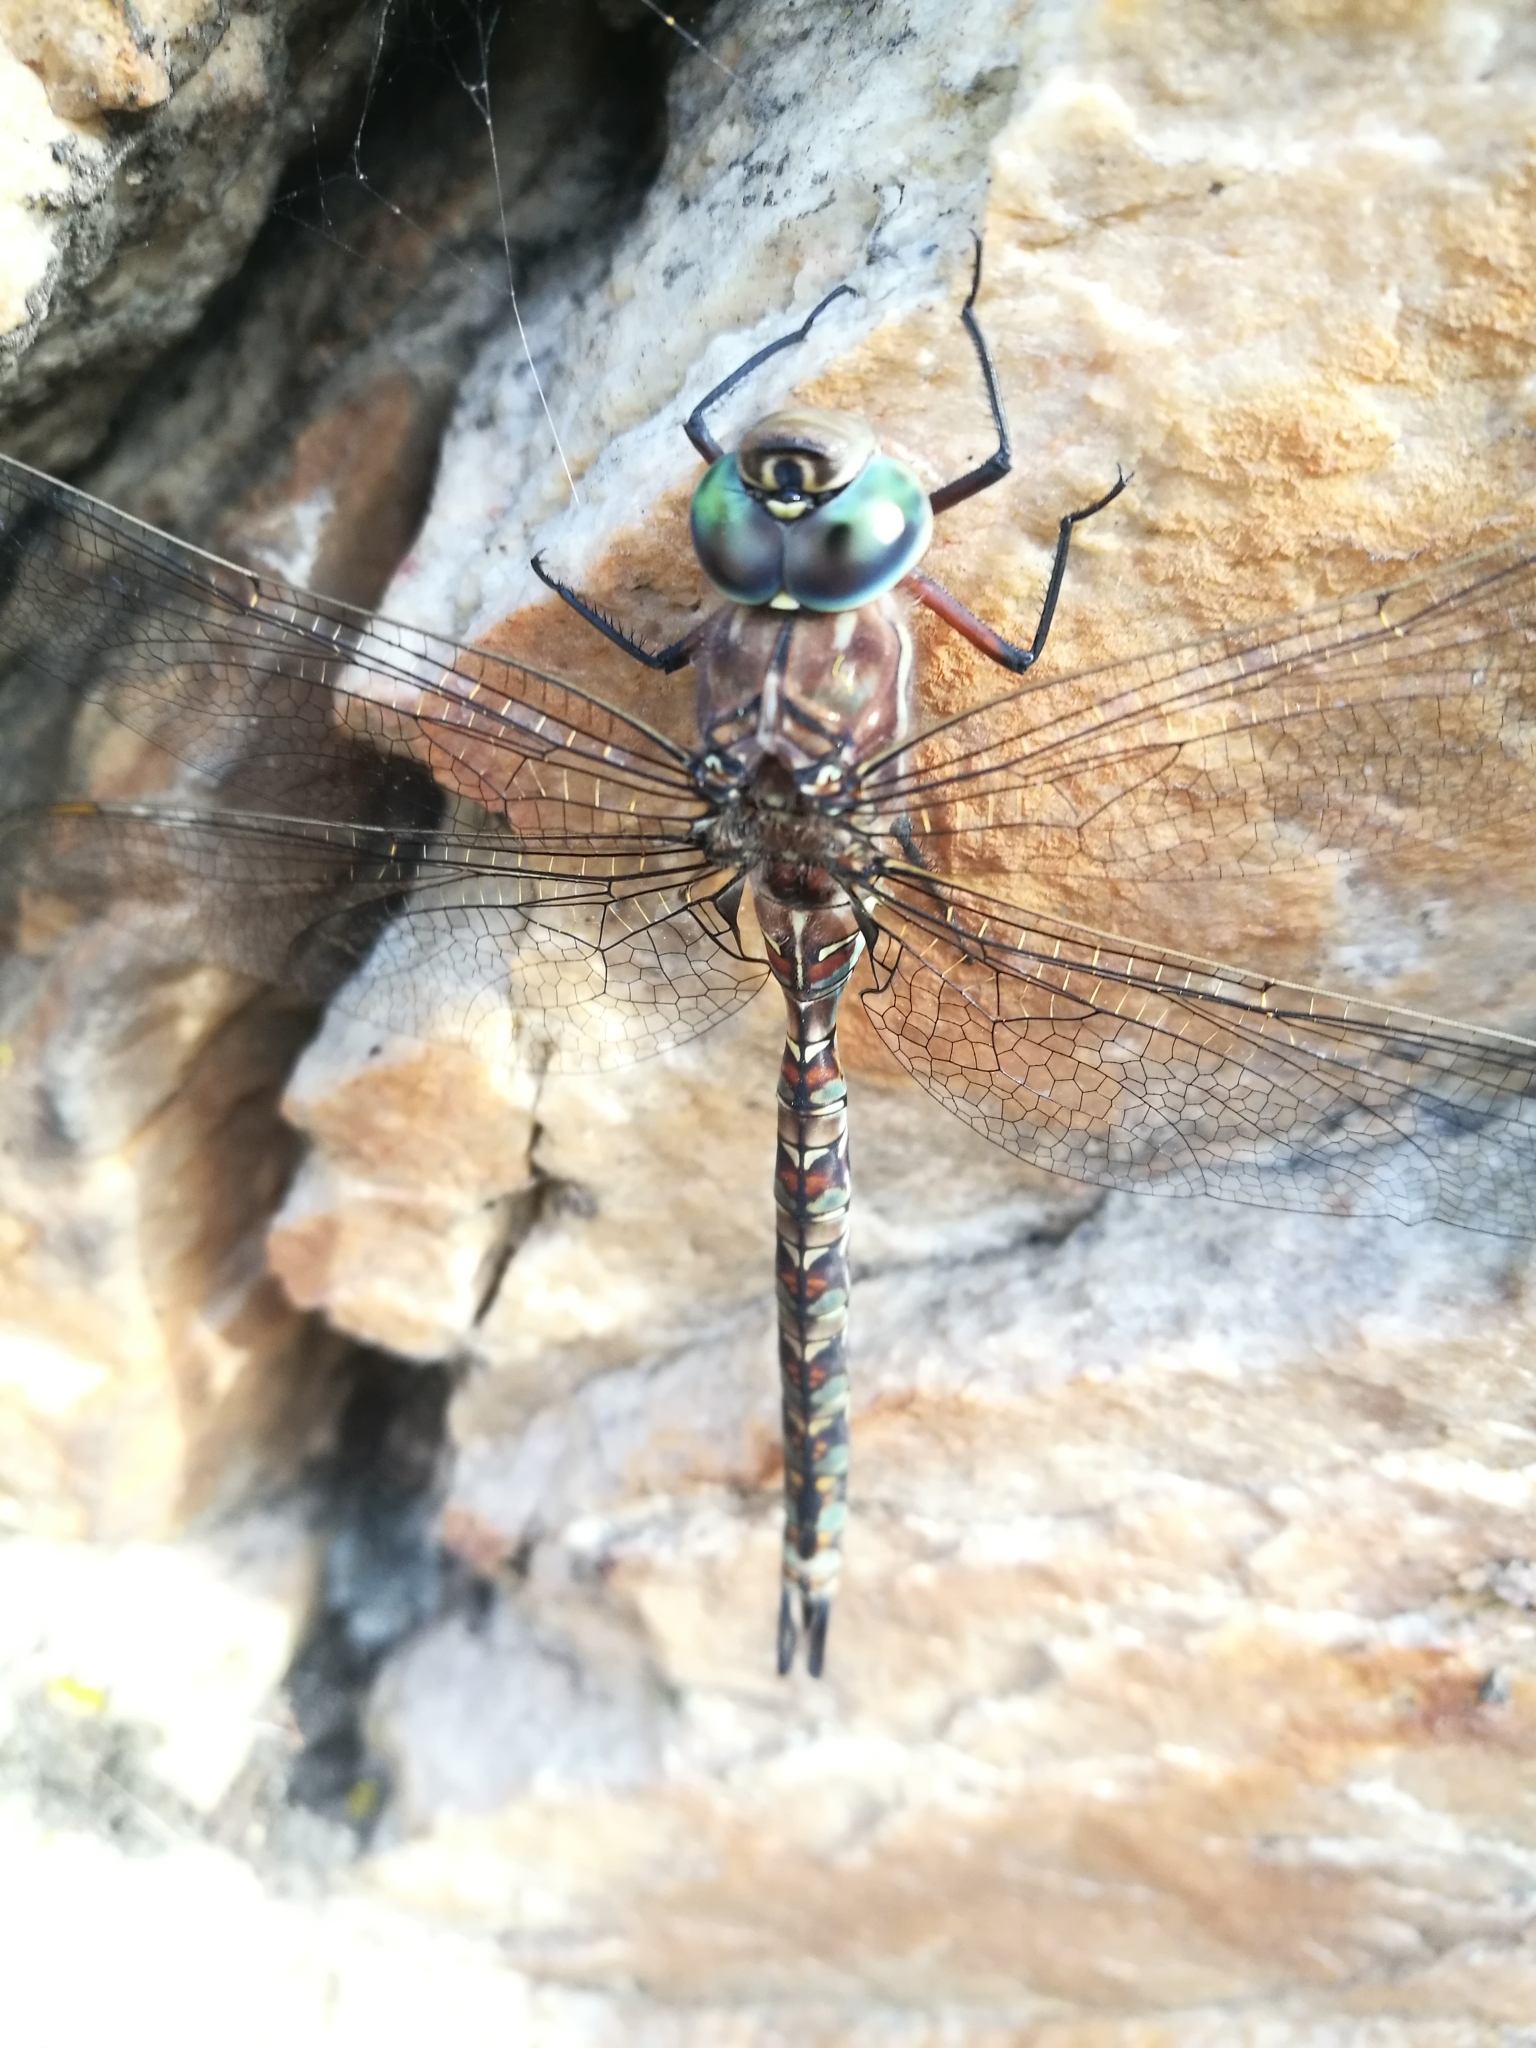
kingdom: Animalia
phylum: Arthropoda
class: Insecta
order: Odonata
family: Aeshnidae
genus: Pinheyschna
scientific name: Pinheyschna subpupillata
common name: Stream hawker
